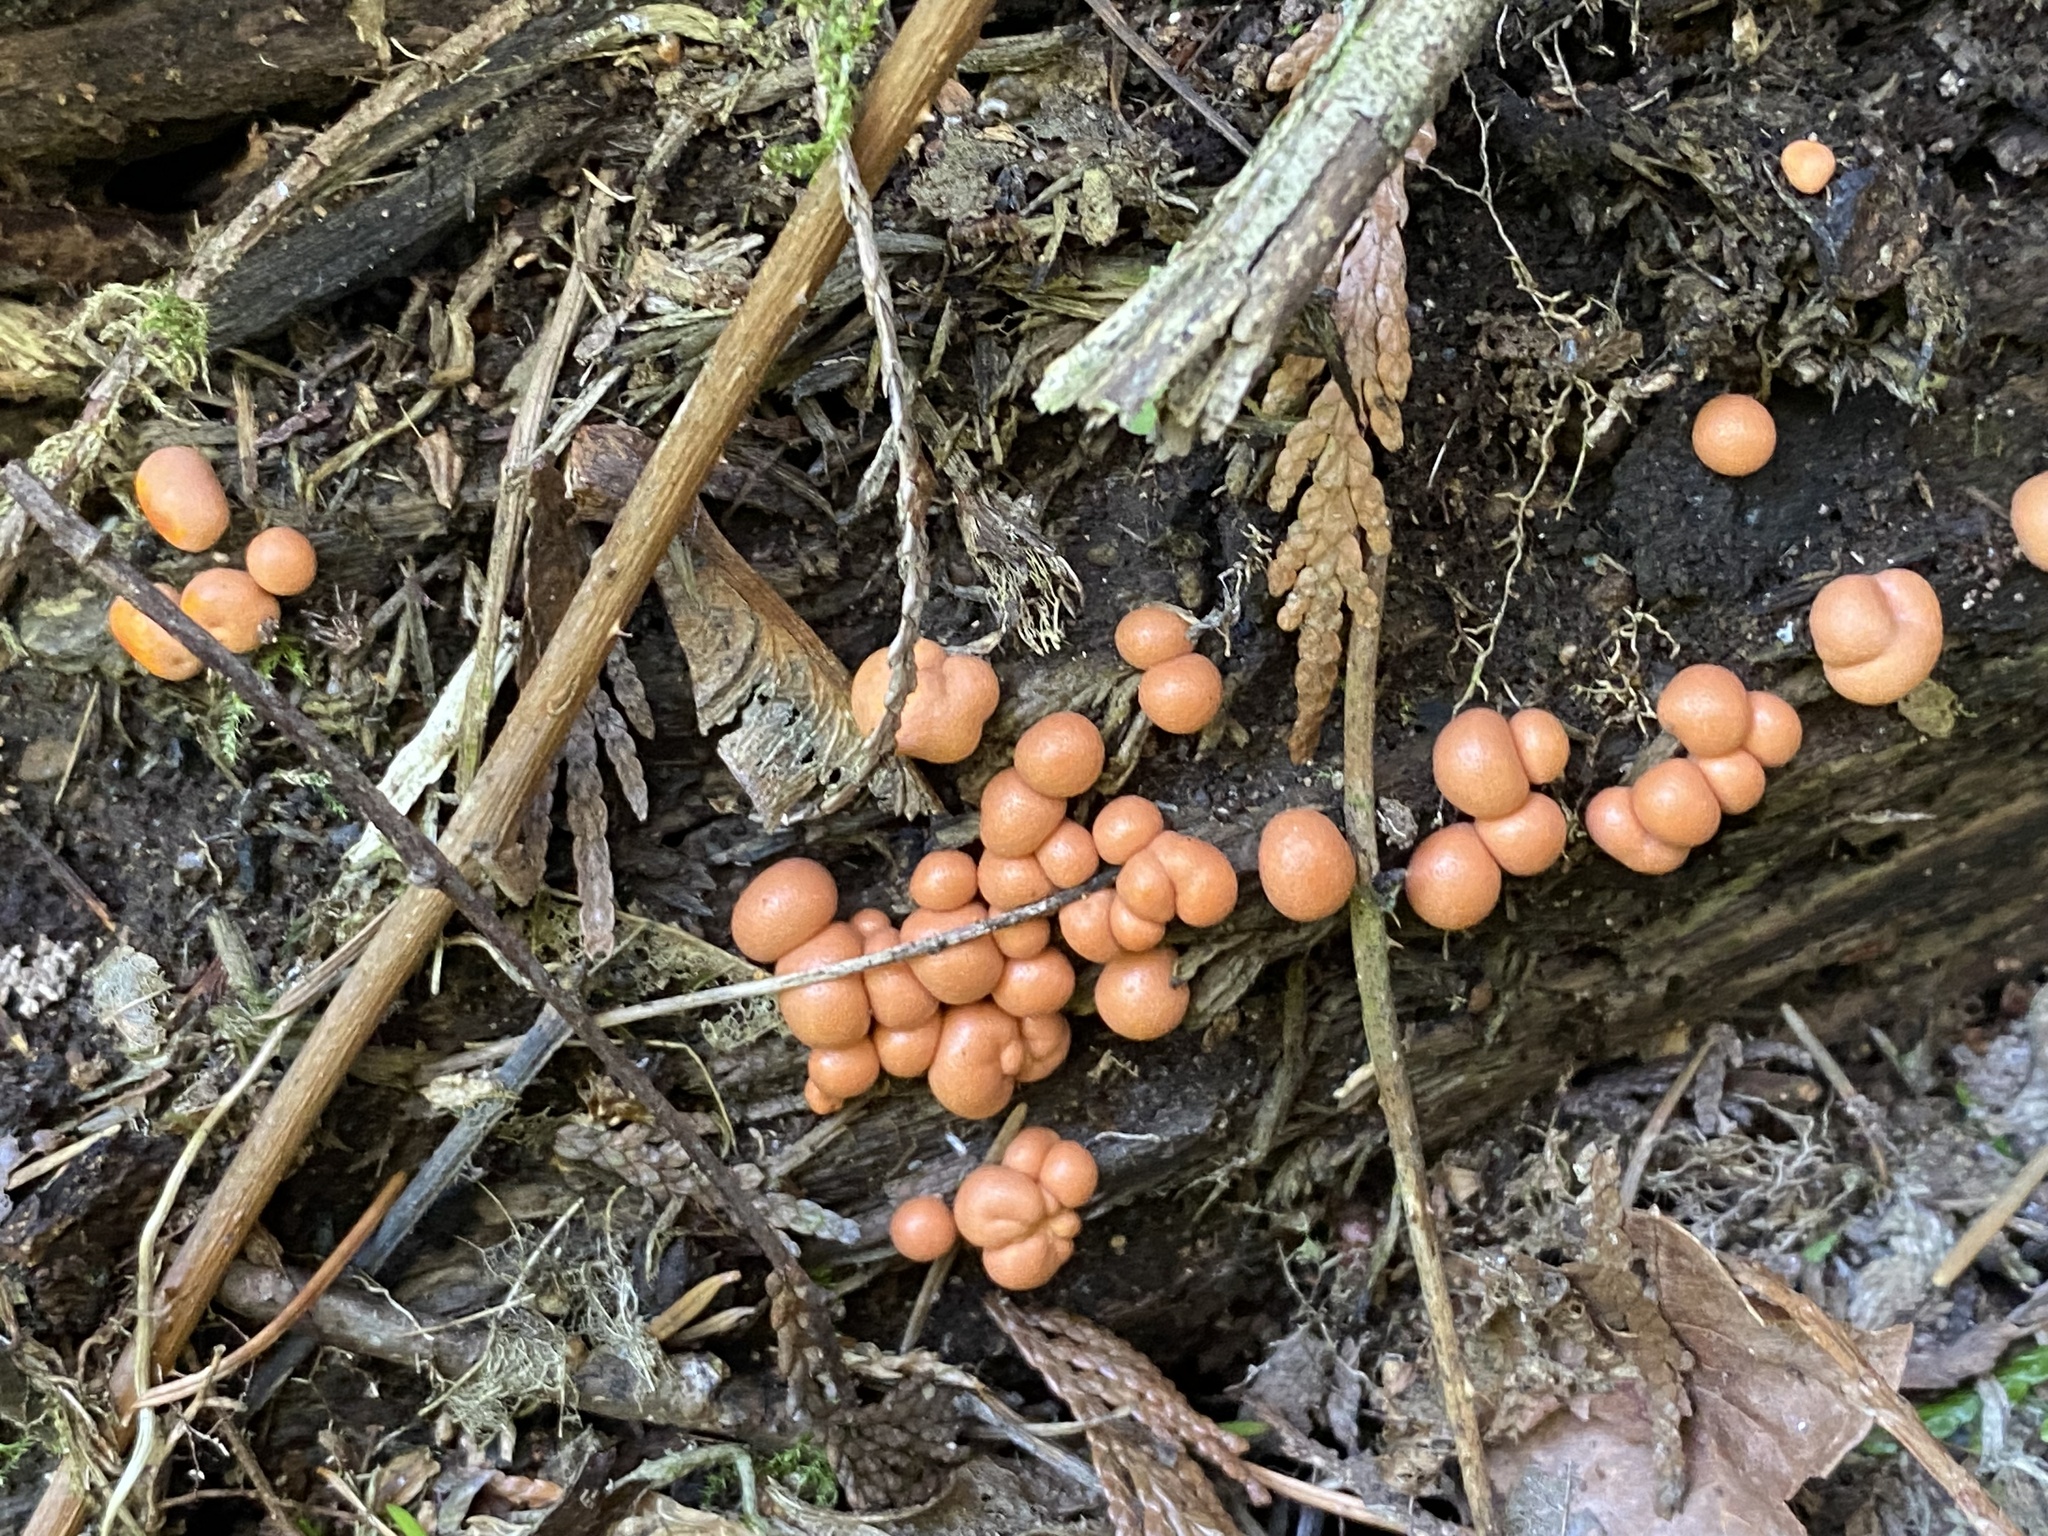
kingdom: Protozoa
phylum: Mycetozoa
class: Myxomycetes
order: Cribrariales
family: Tubiferaceae
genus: Lycogala
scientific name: Lycogala epidendrum
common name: Wolf's milk
